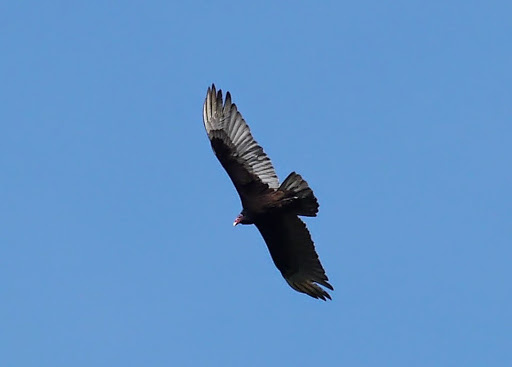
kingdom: Animalia
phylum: Chordata
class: Aves
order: Accipitriformes
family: Cathartidae
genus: Cathartes
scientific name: Cathartes aura
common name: Turkey vulture
